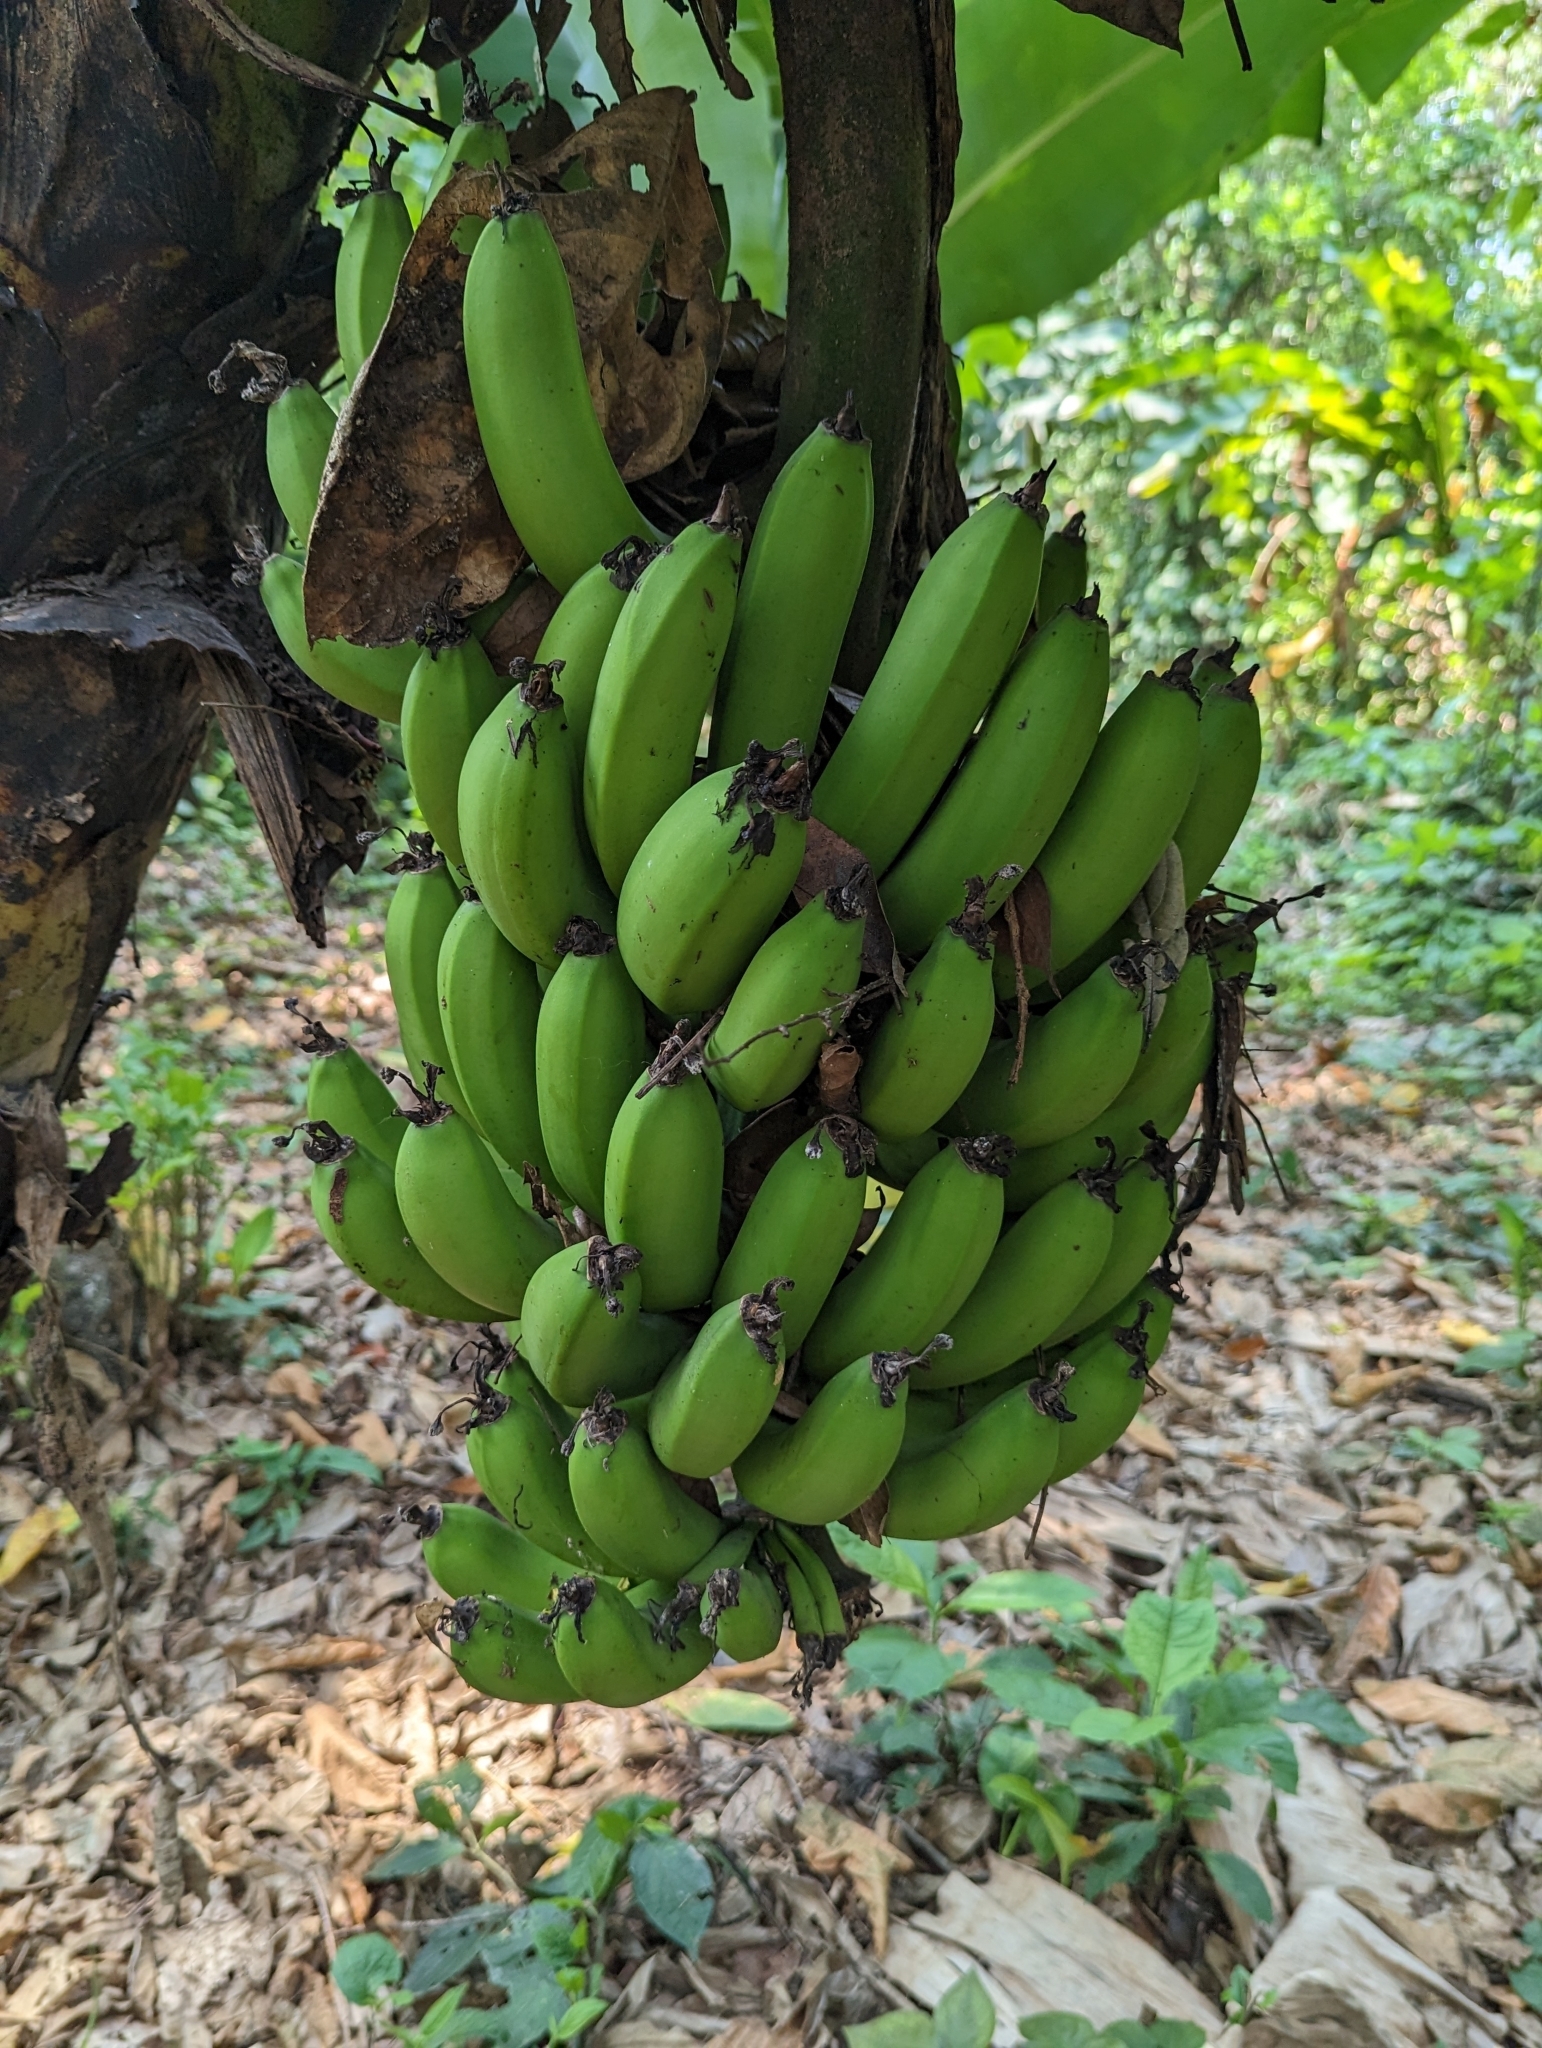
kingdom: Plantae
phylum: Tracheophyta
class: Liliopsida
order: Zingiberales
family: Musaceae
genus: Musa
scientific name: Musa acuminata
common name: Edible banana
